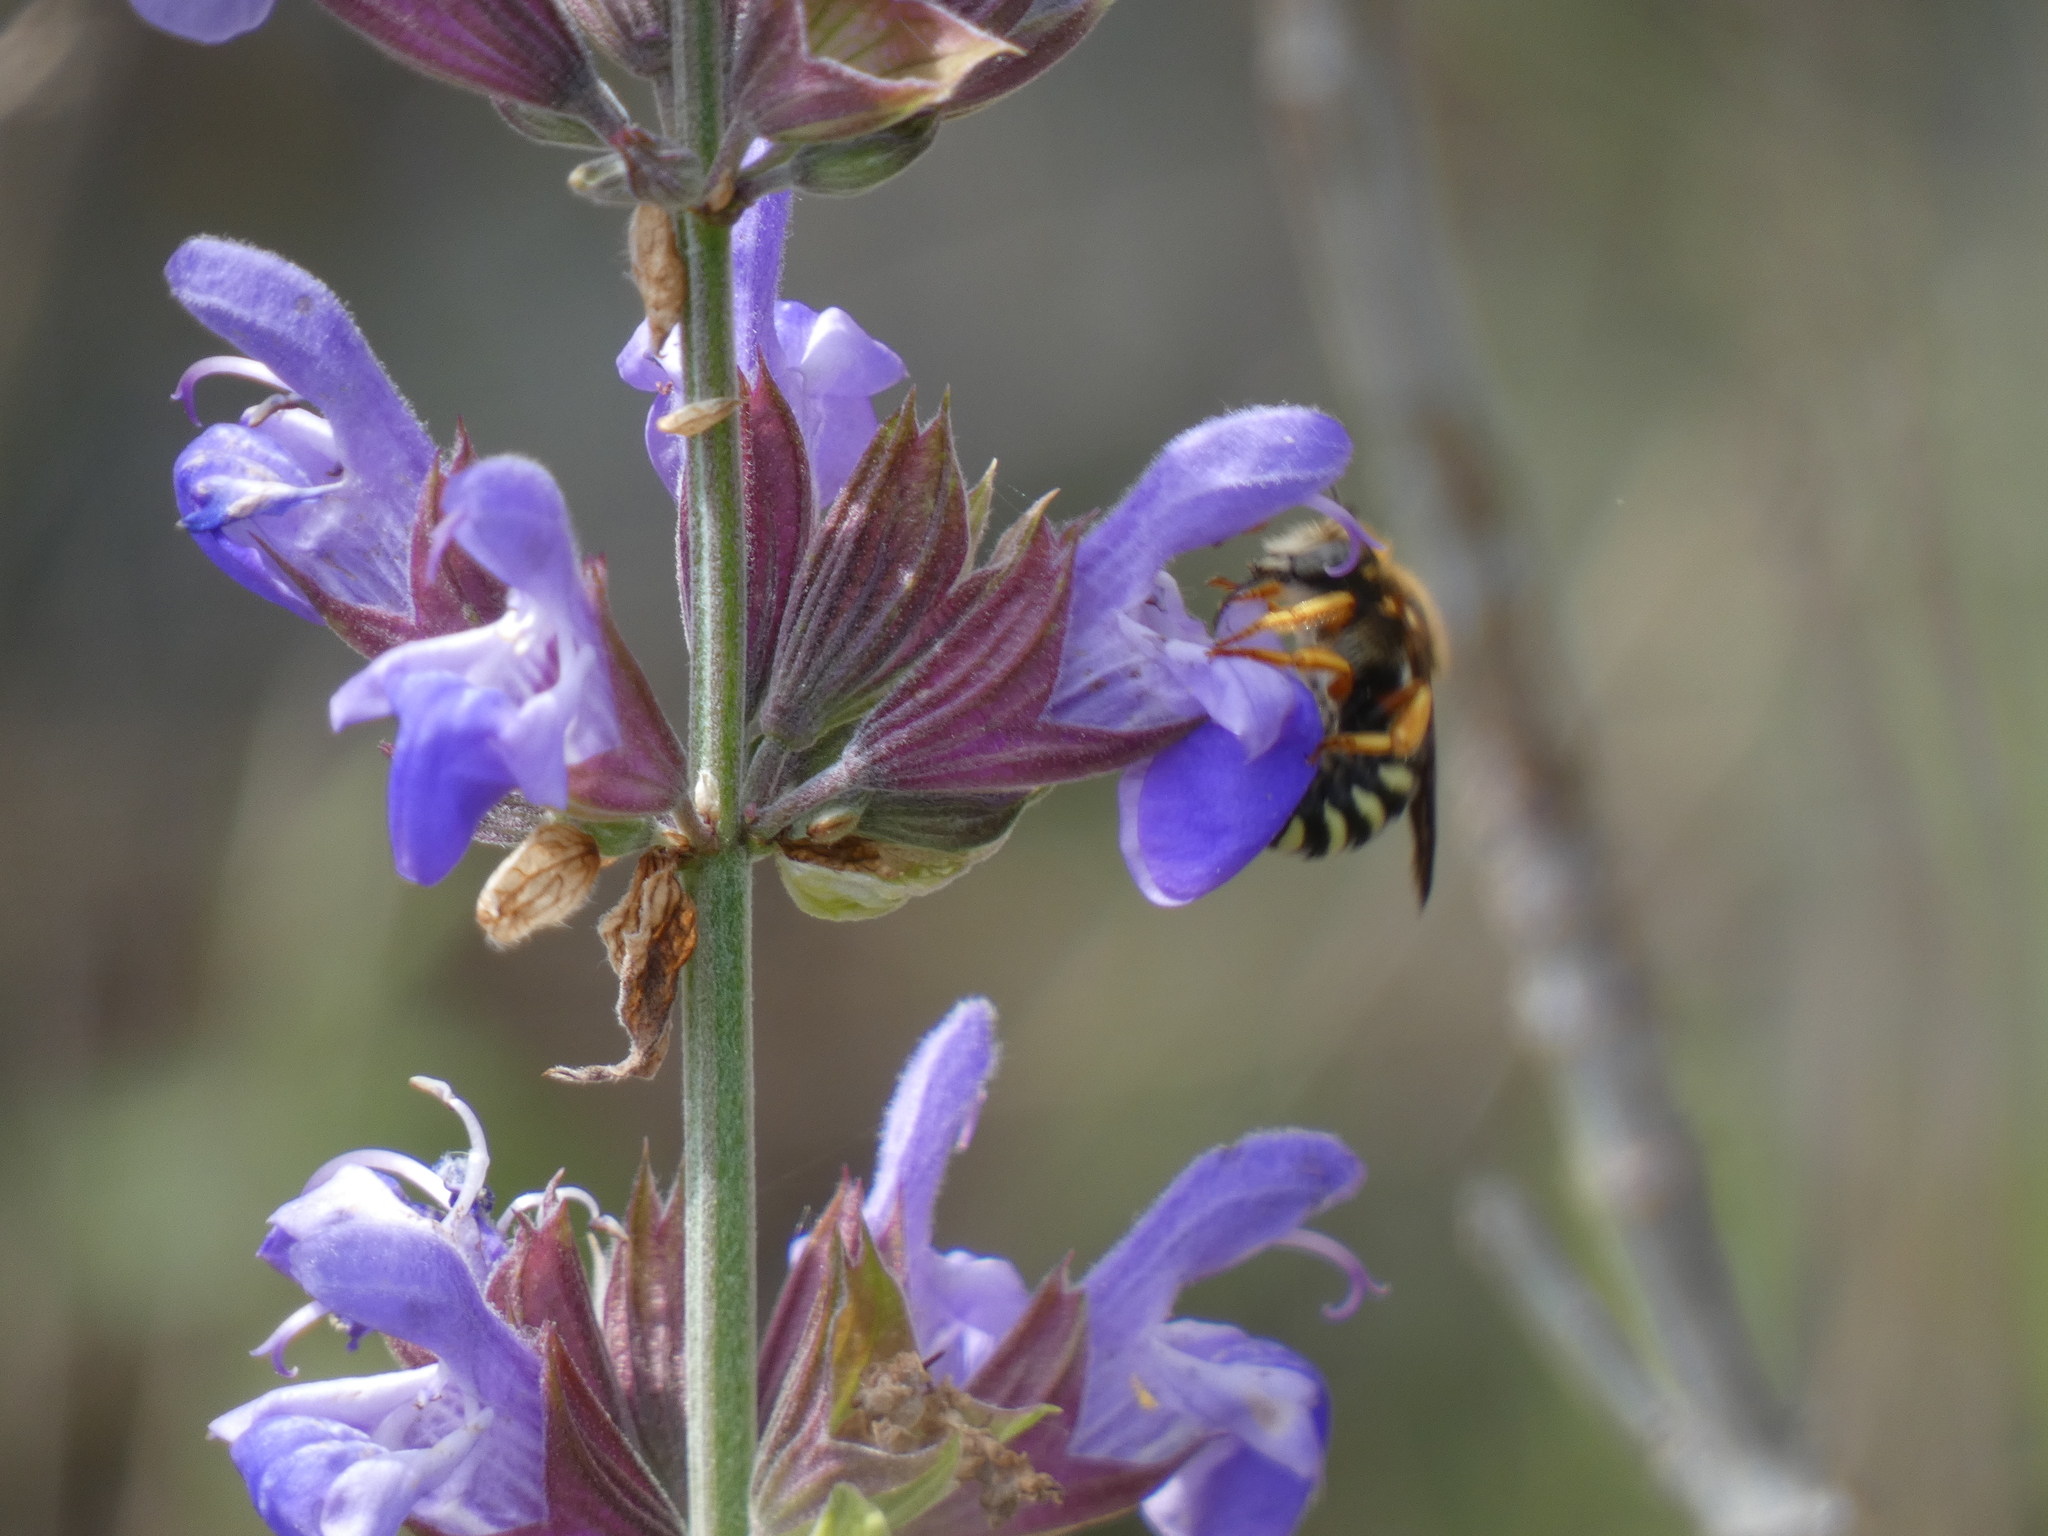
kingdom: Animalia
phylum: Arthropoda
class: Insecta
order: Hymenoptera
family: Megachilidae
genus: Rhodanthidium
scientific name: Rhodanthidium septemdentatum
